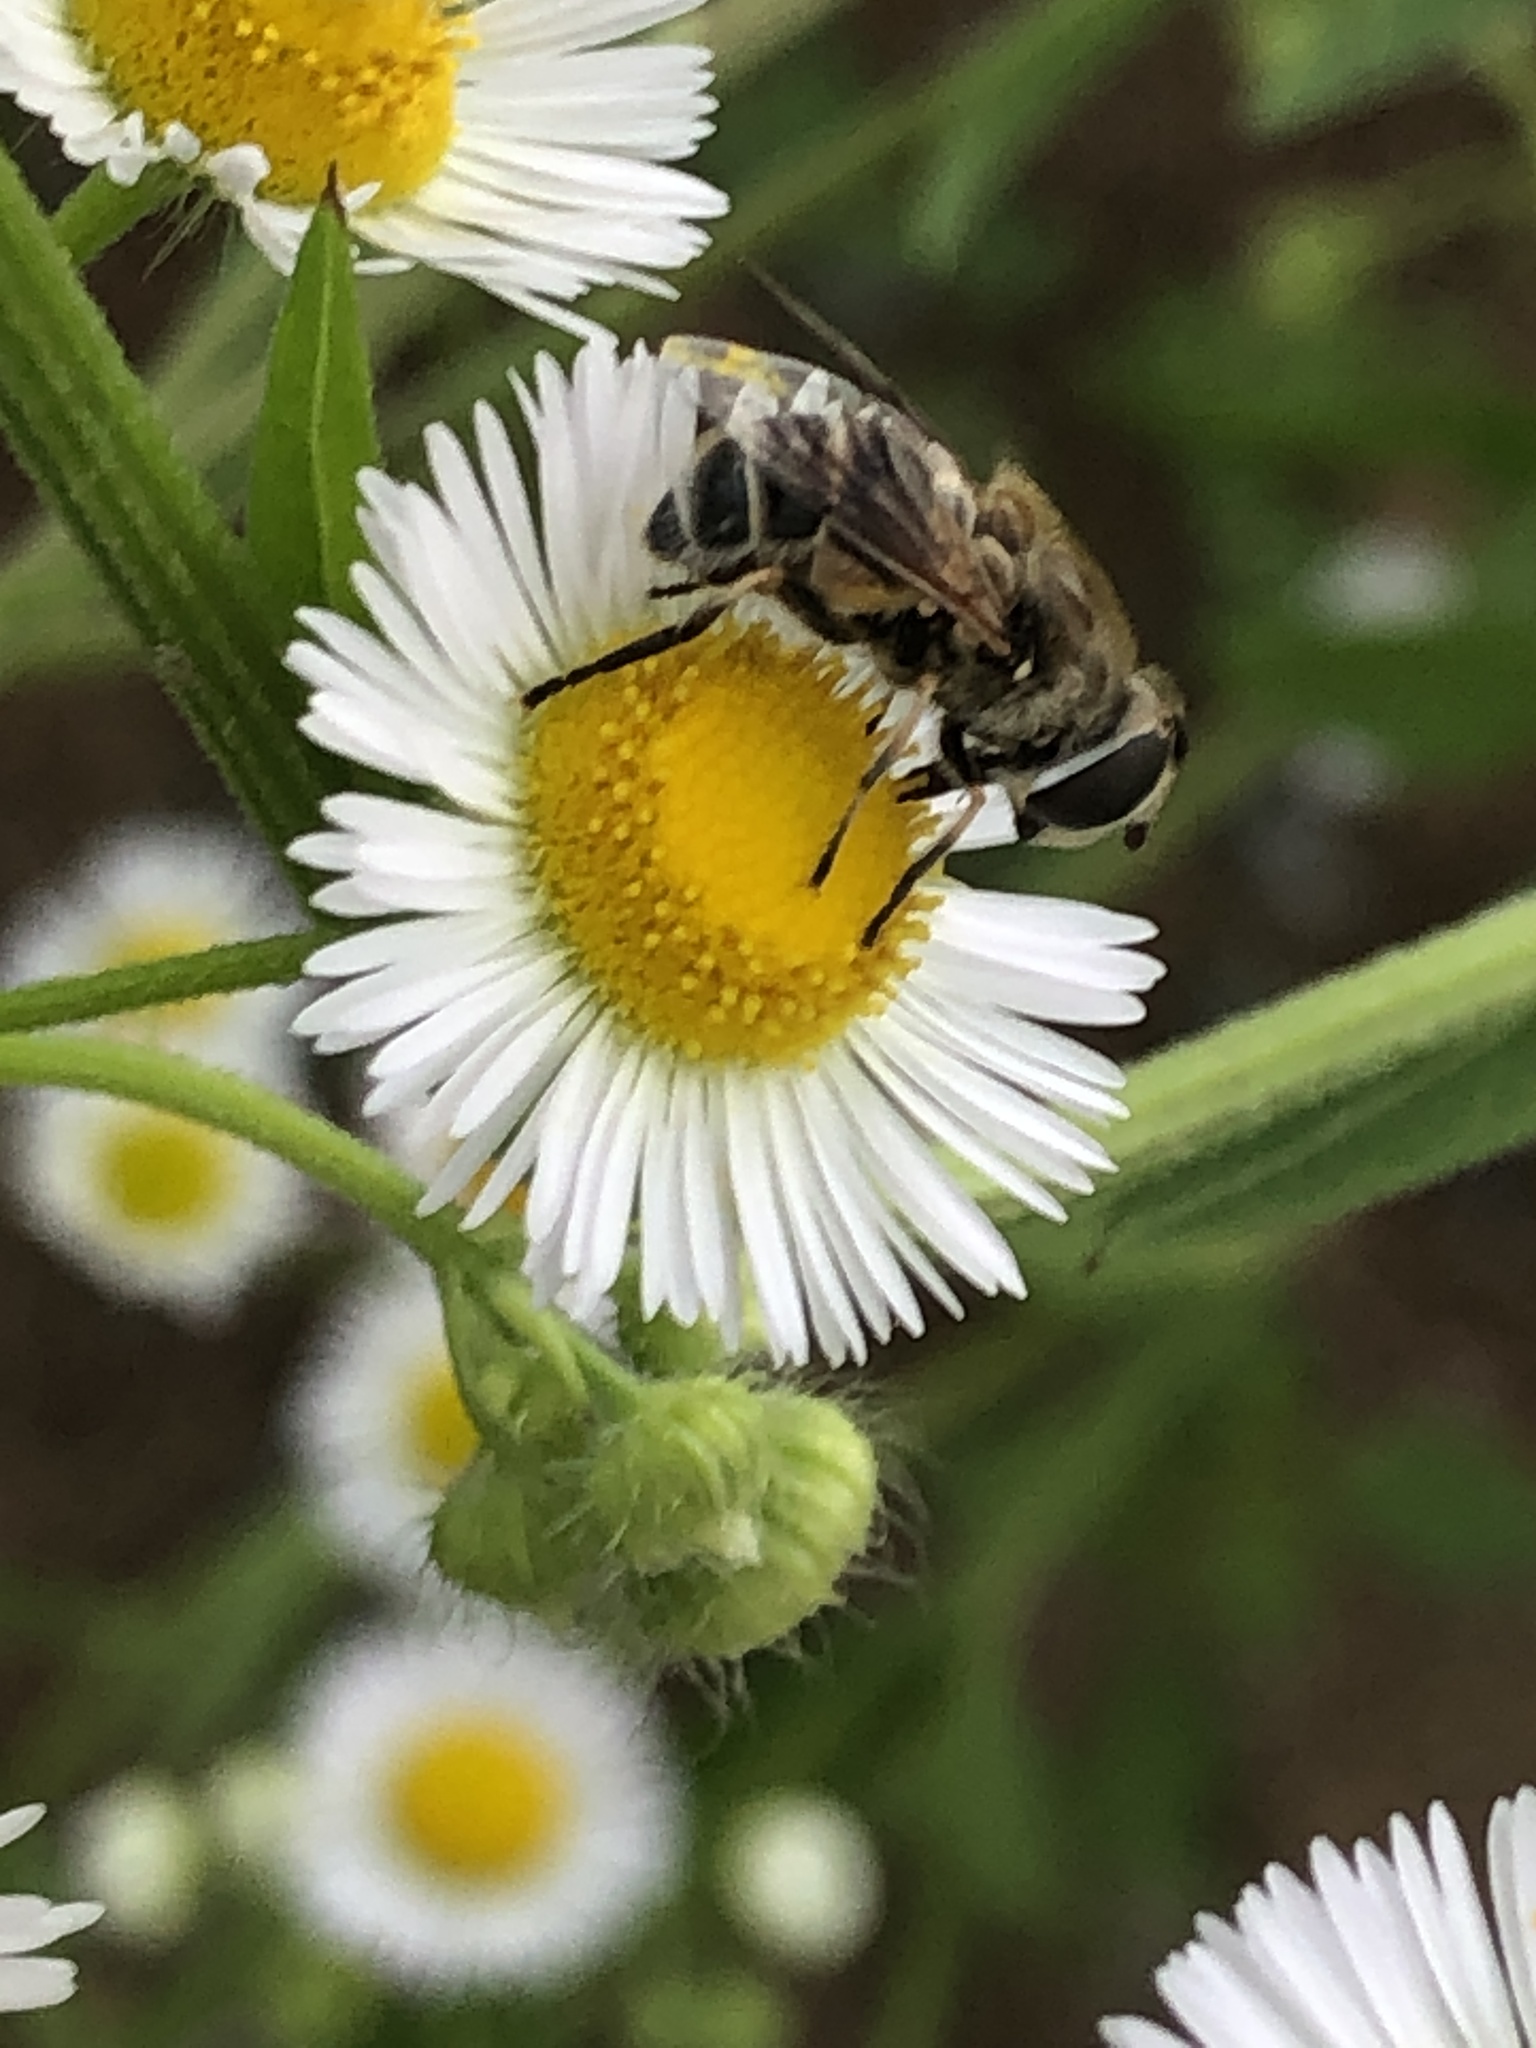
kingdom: Animalia
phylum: Arthropoda
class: Insecta
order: Diptera
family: Syrphidae
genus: Eristalis
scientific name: Eristalis arbustorum
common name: Hover fly
